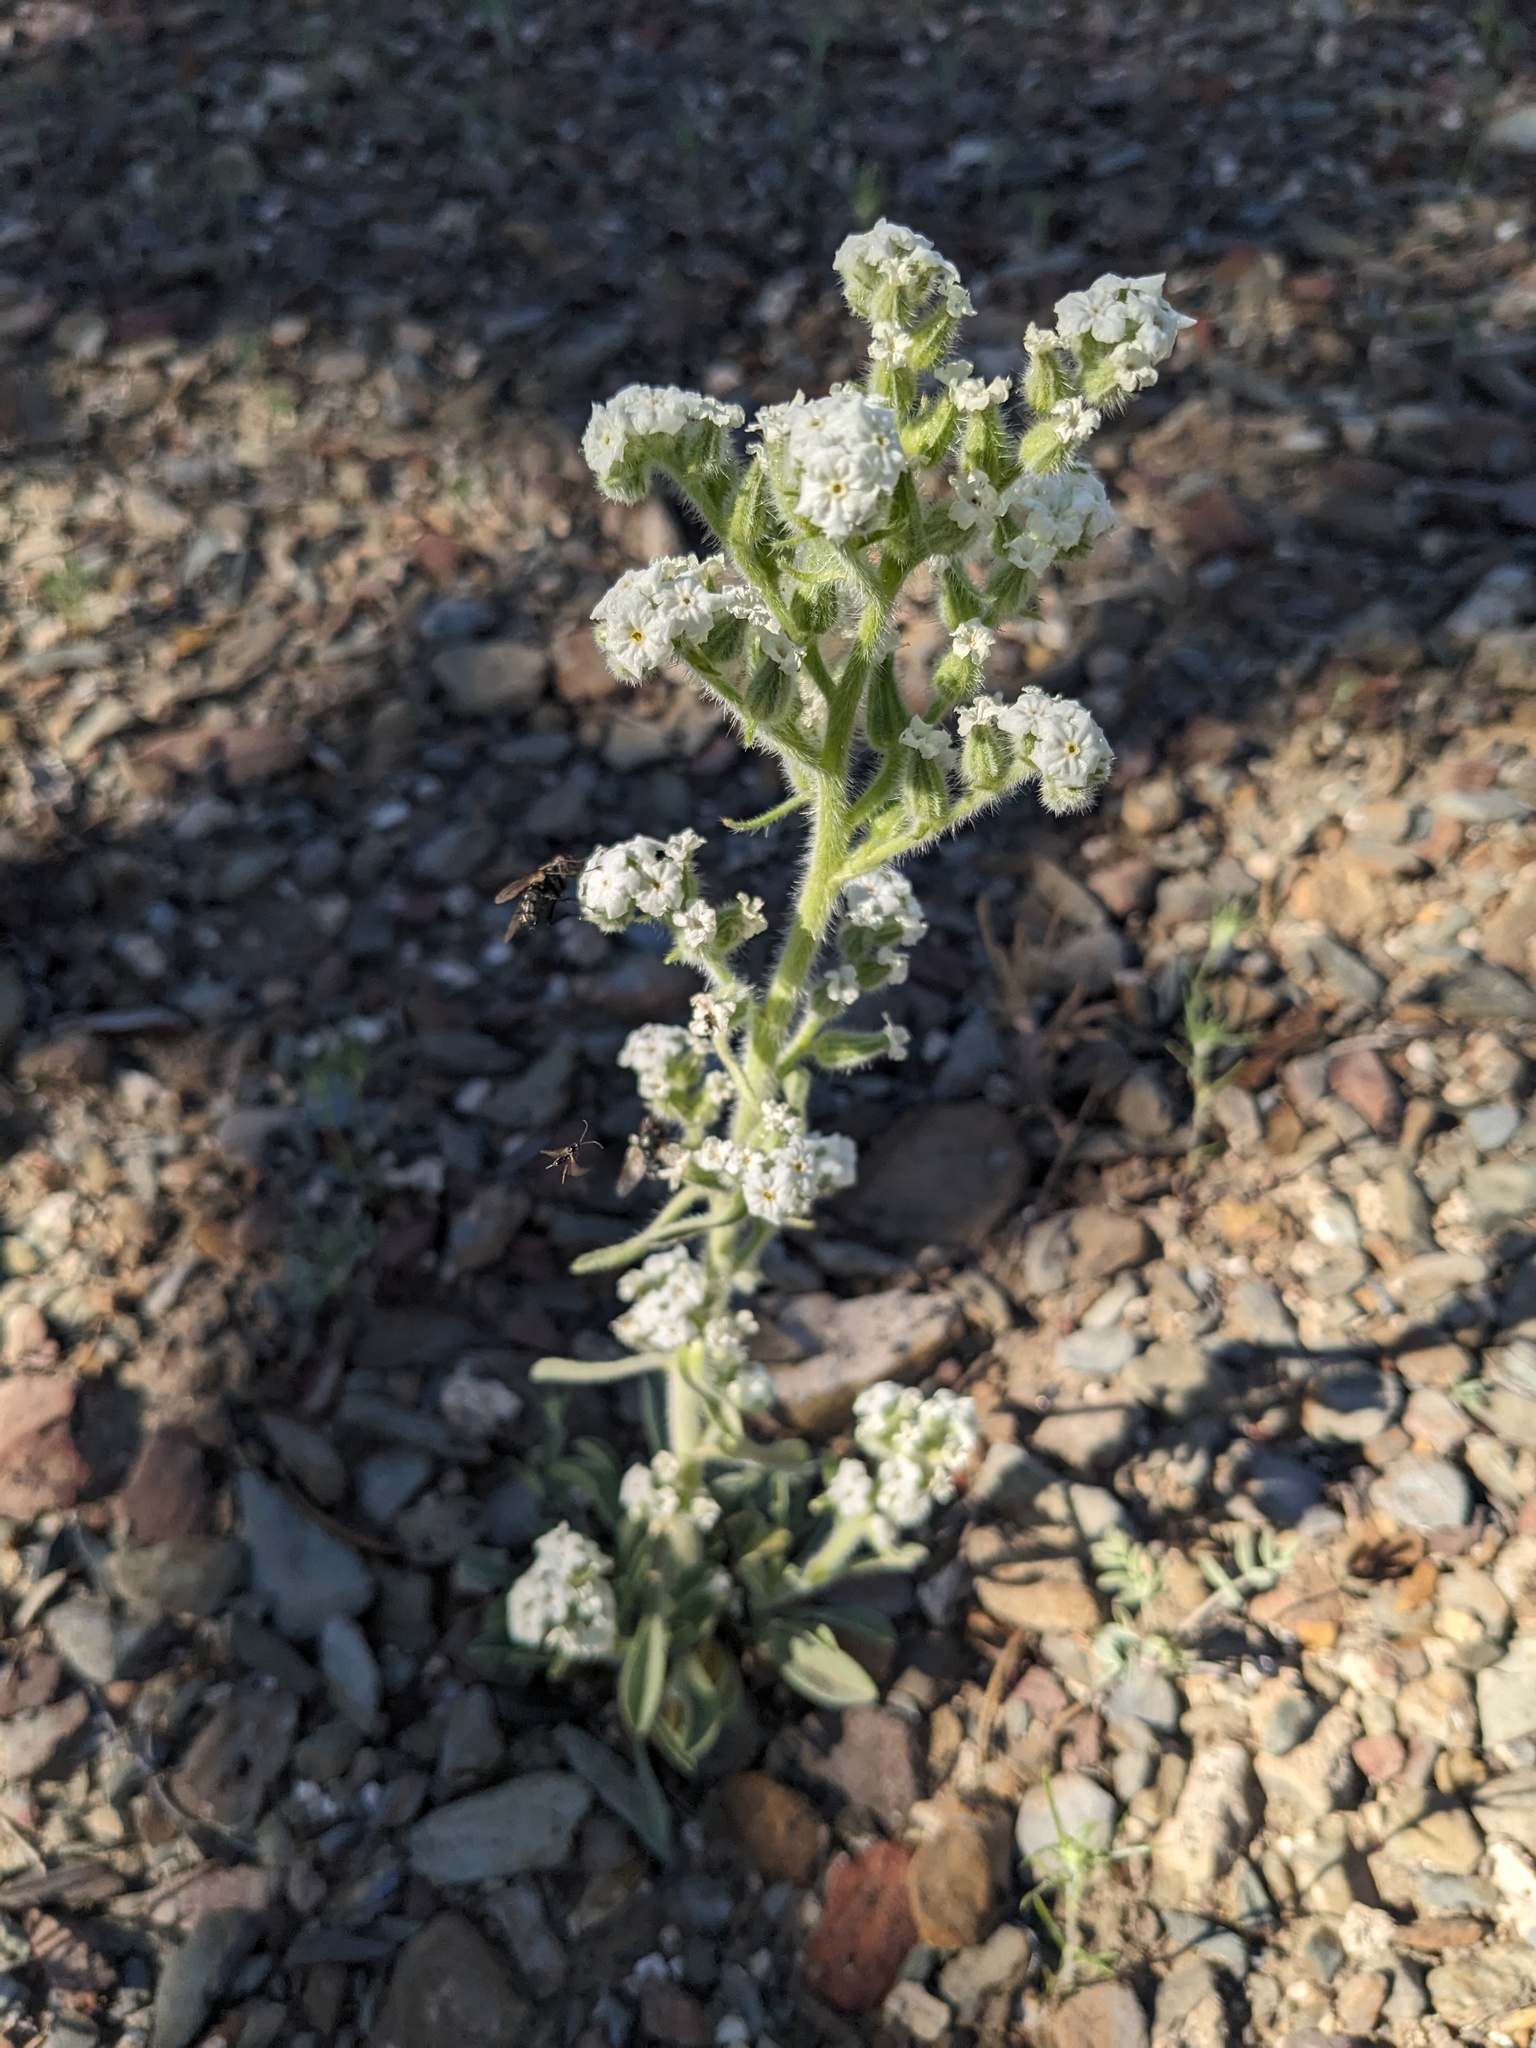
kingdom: Plantae
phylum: Tracheophyta
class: Magnoliopsida
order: Boraginales
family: Boraginaceae
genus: Oreocarya
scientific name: Oreocarya hoffmannii
